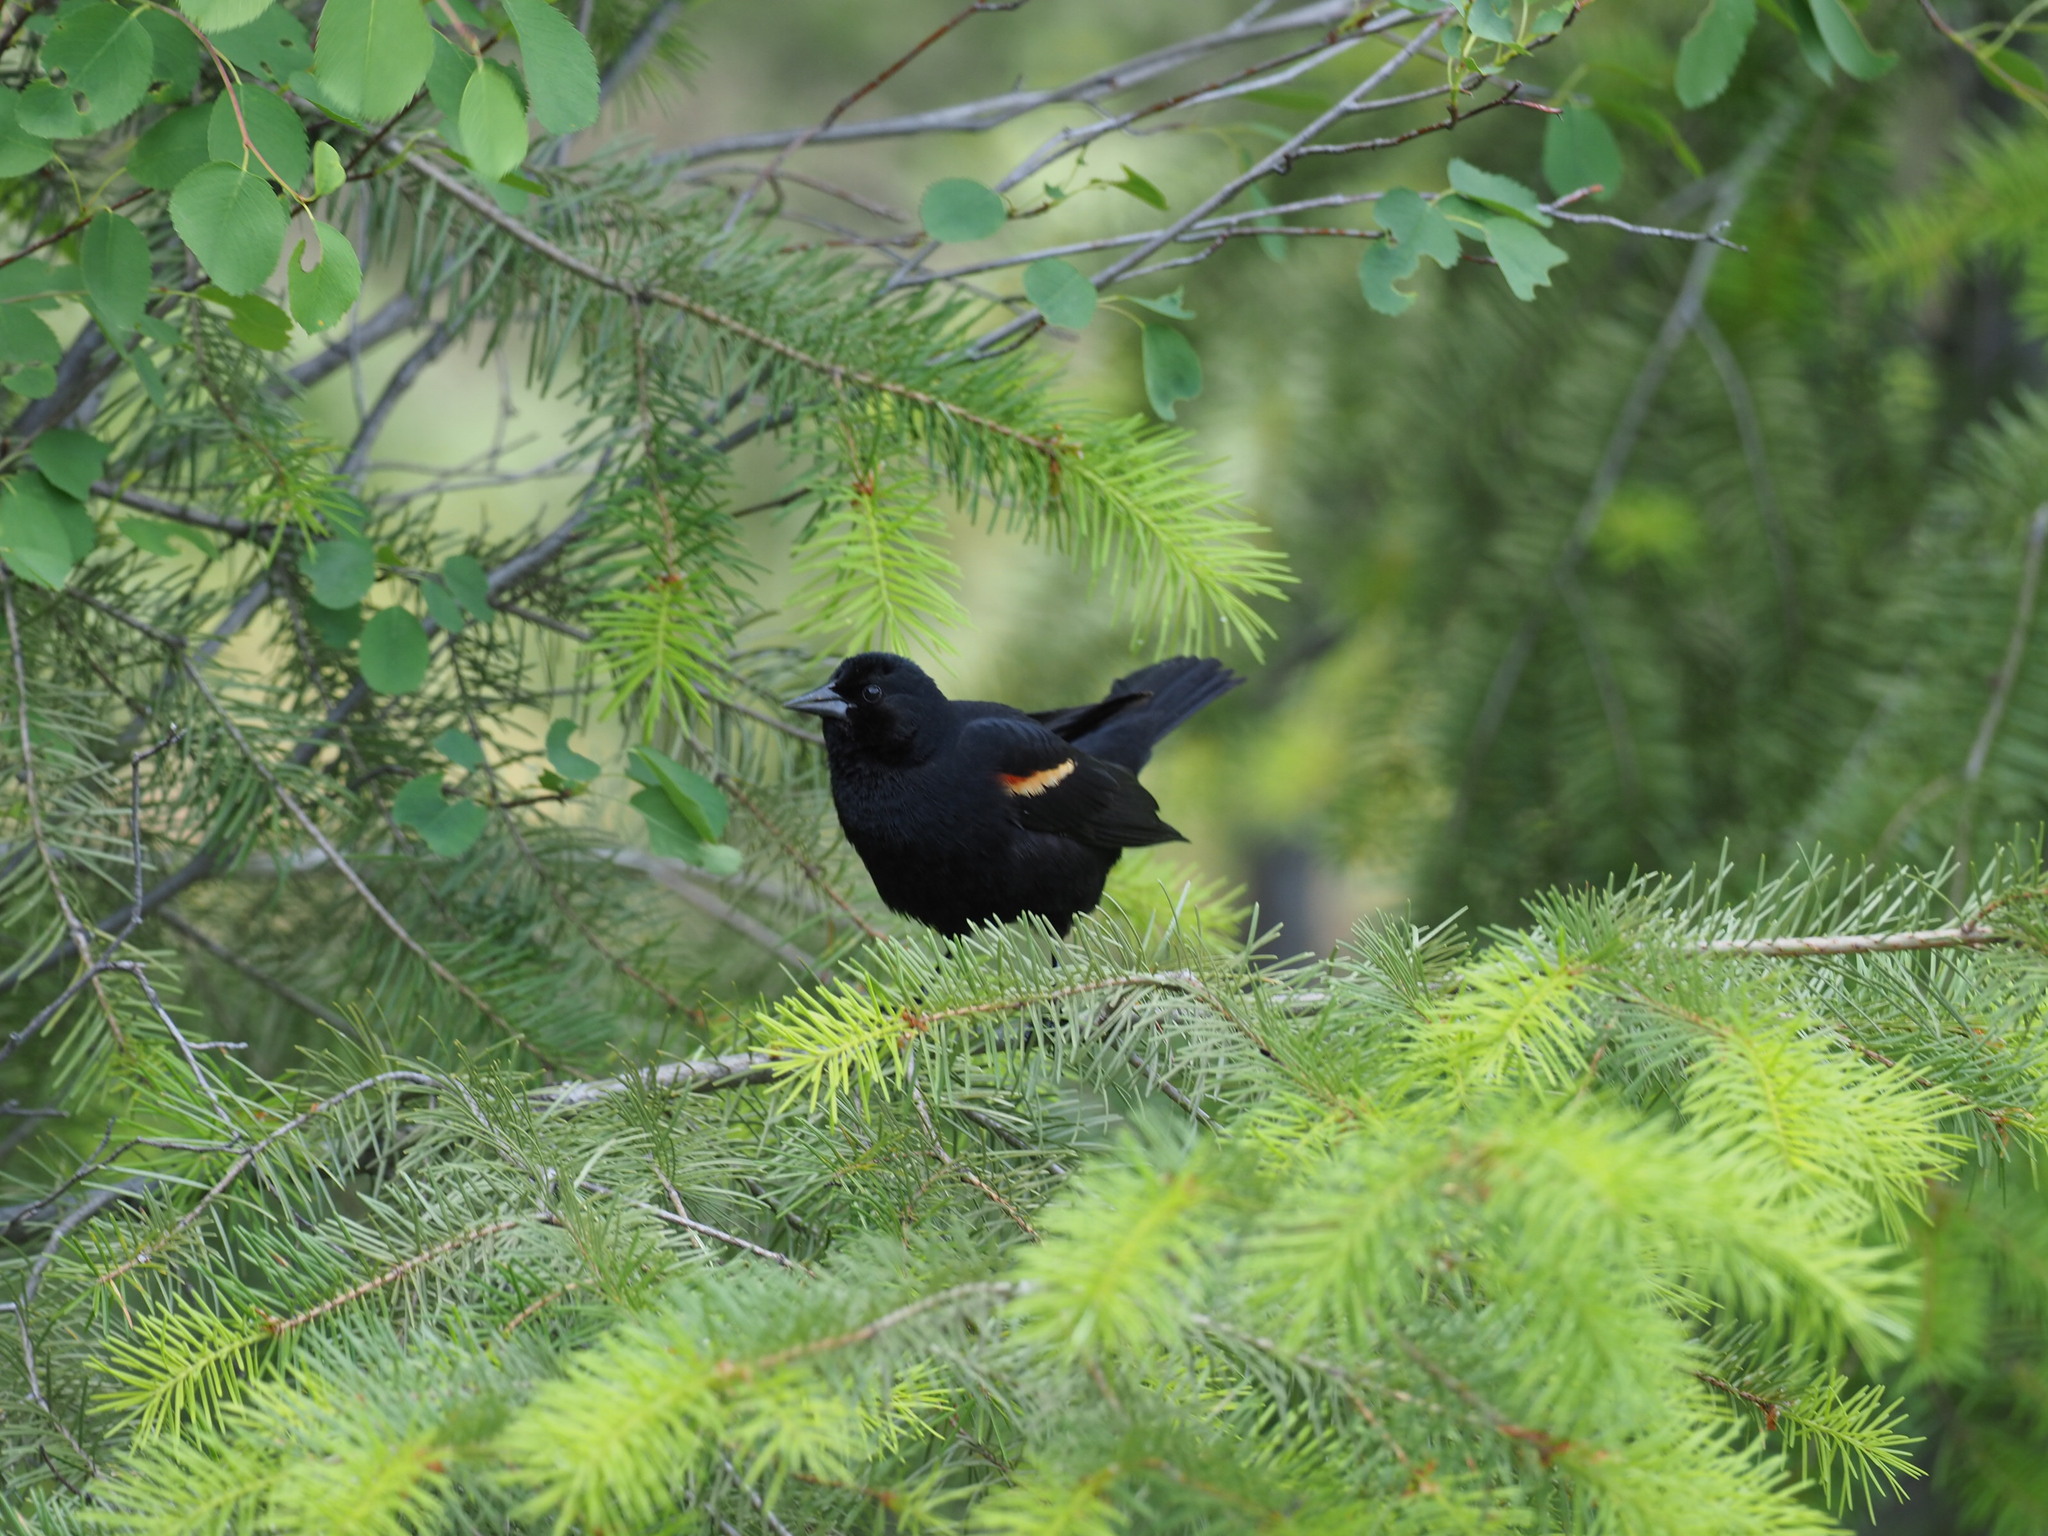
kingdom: Animalia
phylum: Chordata
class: Aves
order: Passeriformes
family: Icteridae
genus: Agelaius
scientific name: Agelaius phoeniceus
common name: Red-winged blackbird
